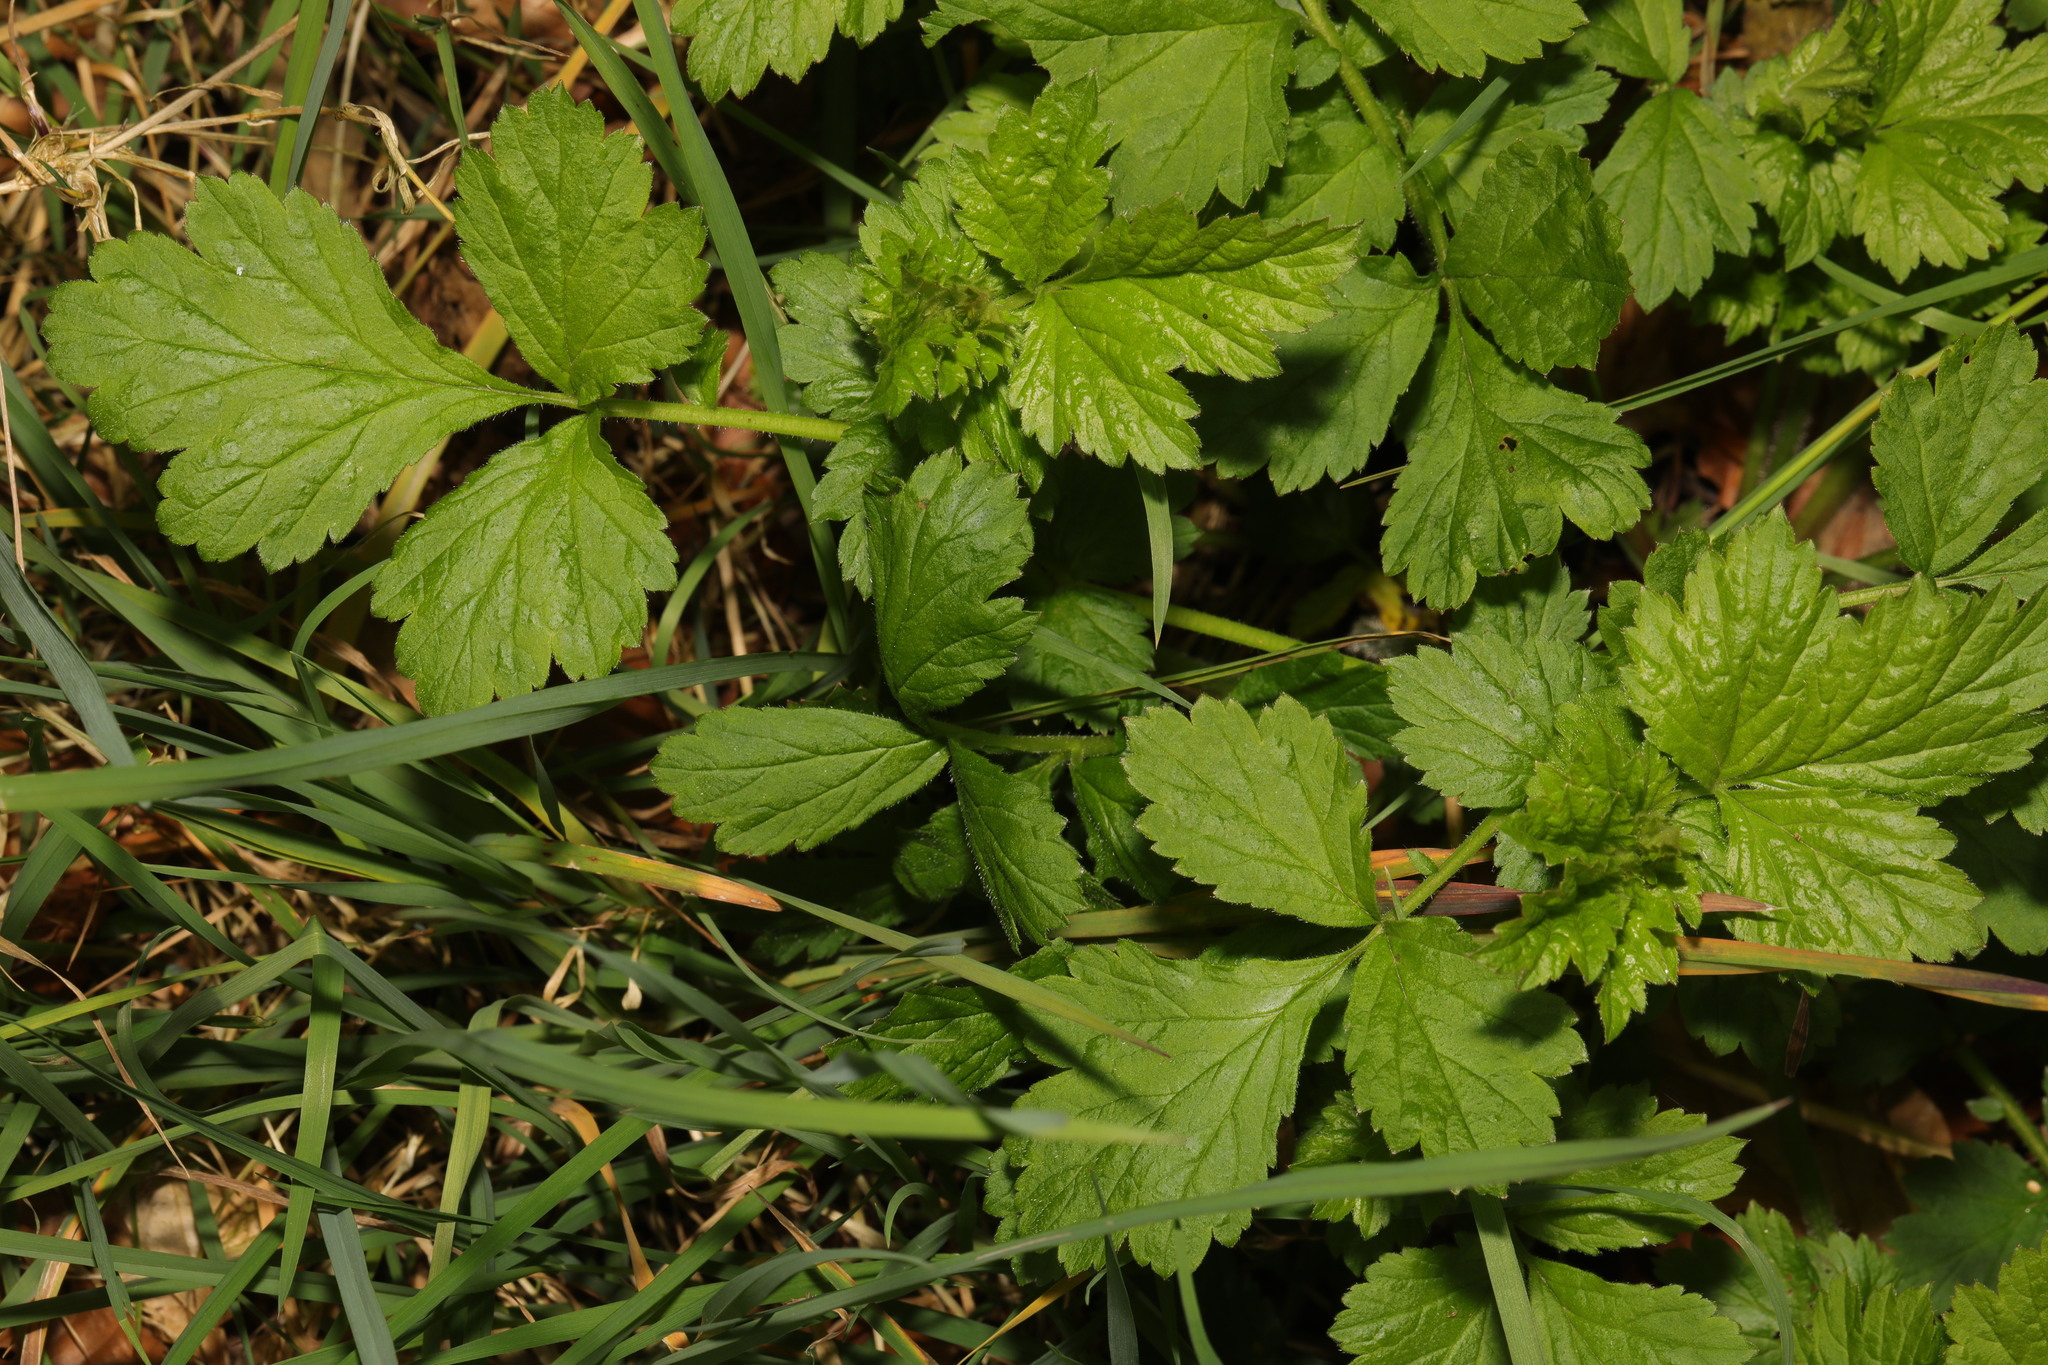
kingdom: Plantae
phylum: Tracheophyta
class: Magnoliopsida
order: Rosales
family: Rosaceae
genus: Geum
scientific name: Geum urbanum
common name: Wood avens
